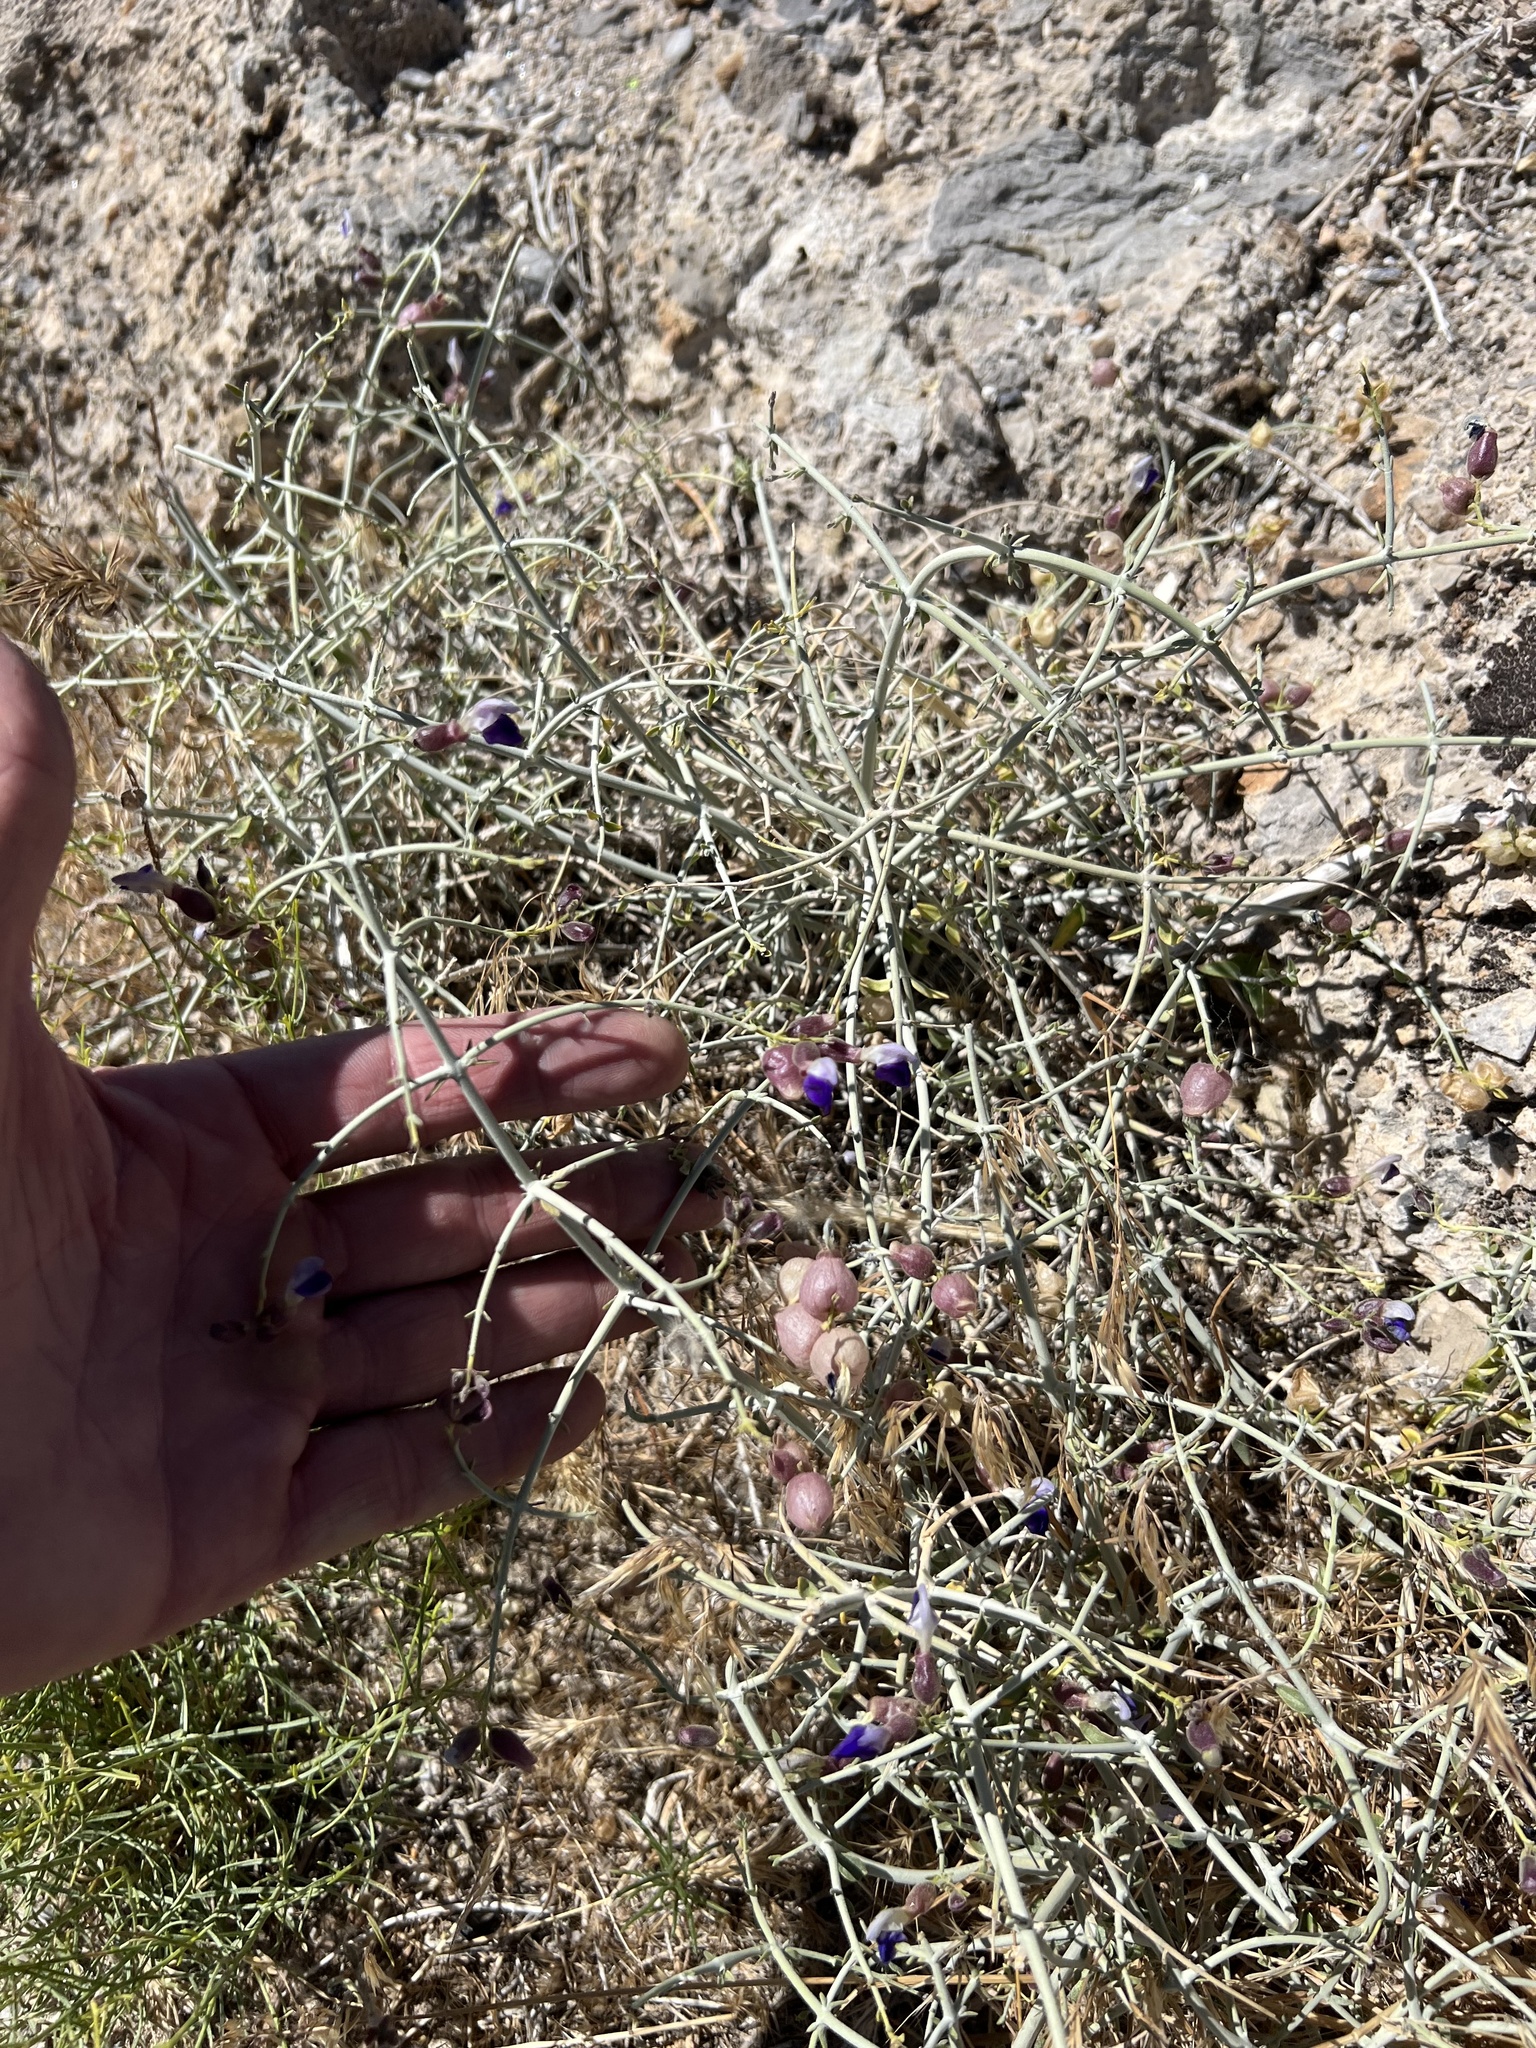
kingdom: Plantae
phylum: Tracheophyta
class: Magnoliopsida
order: Lamiales
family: Lamiaceae
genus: Scutellaria
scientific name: Scutellaria mexicana
